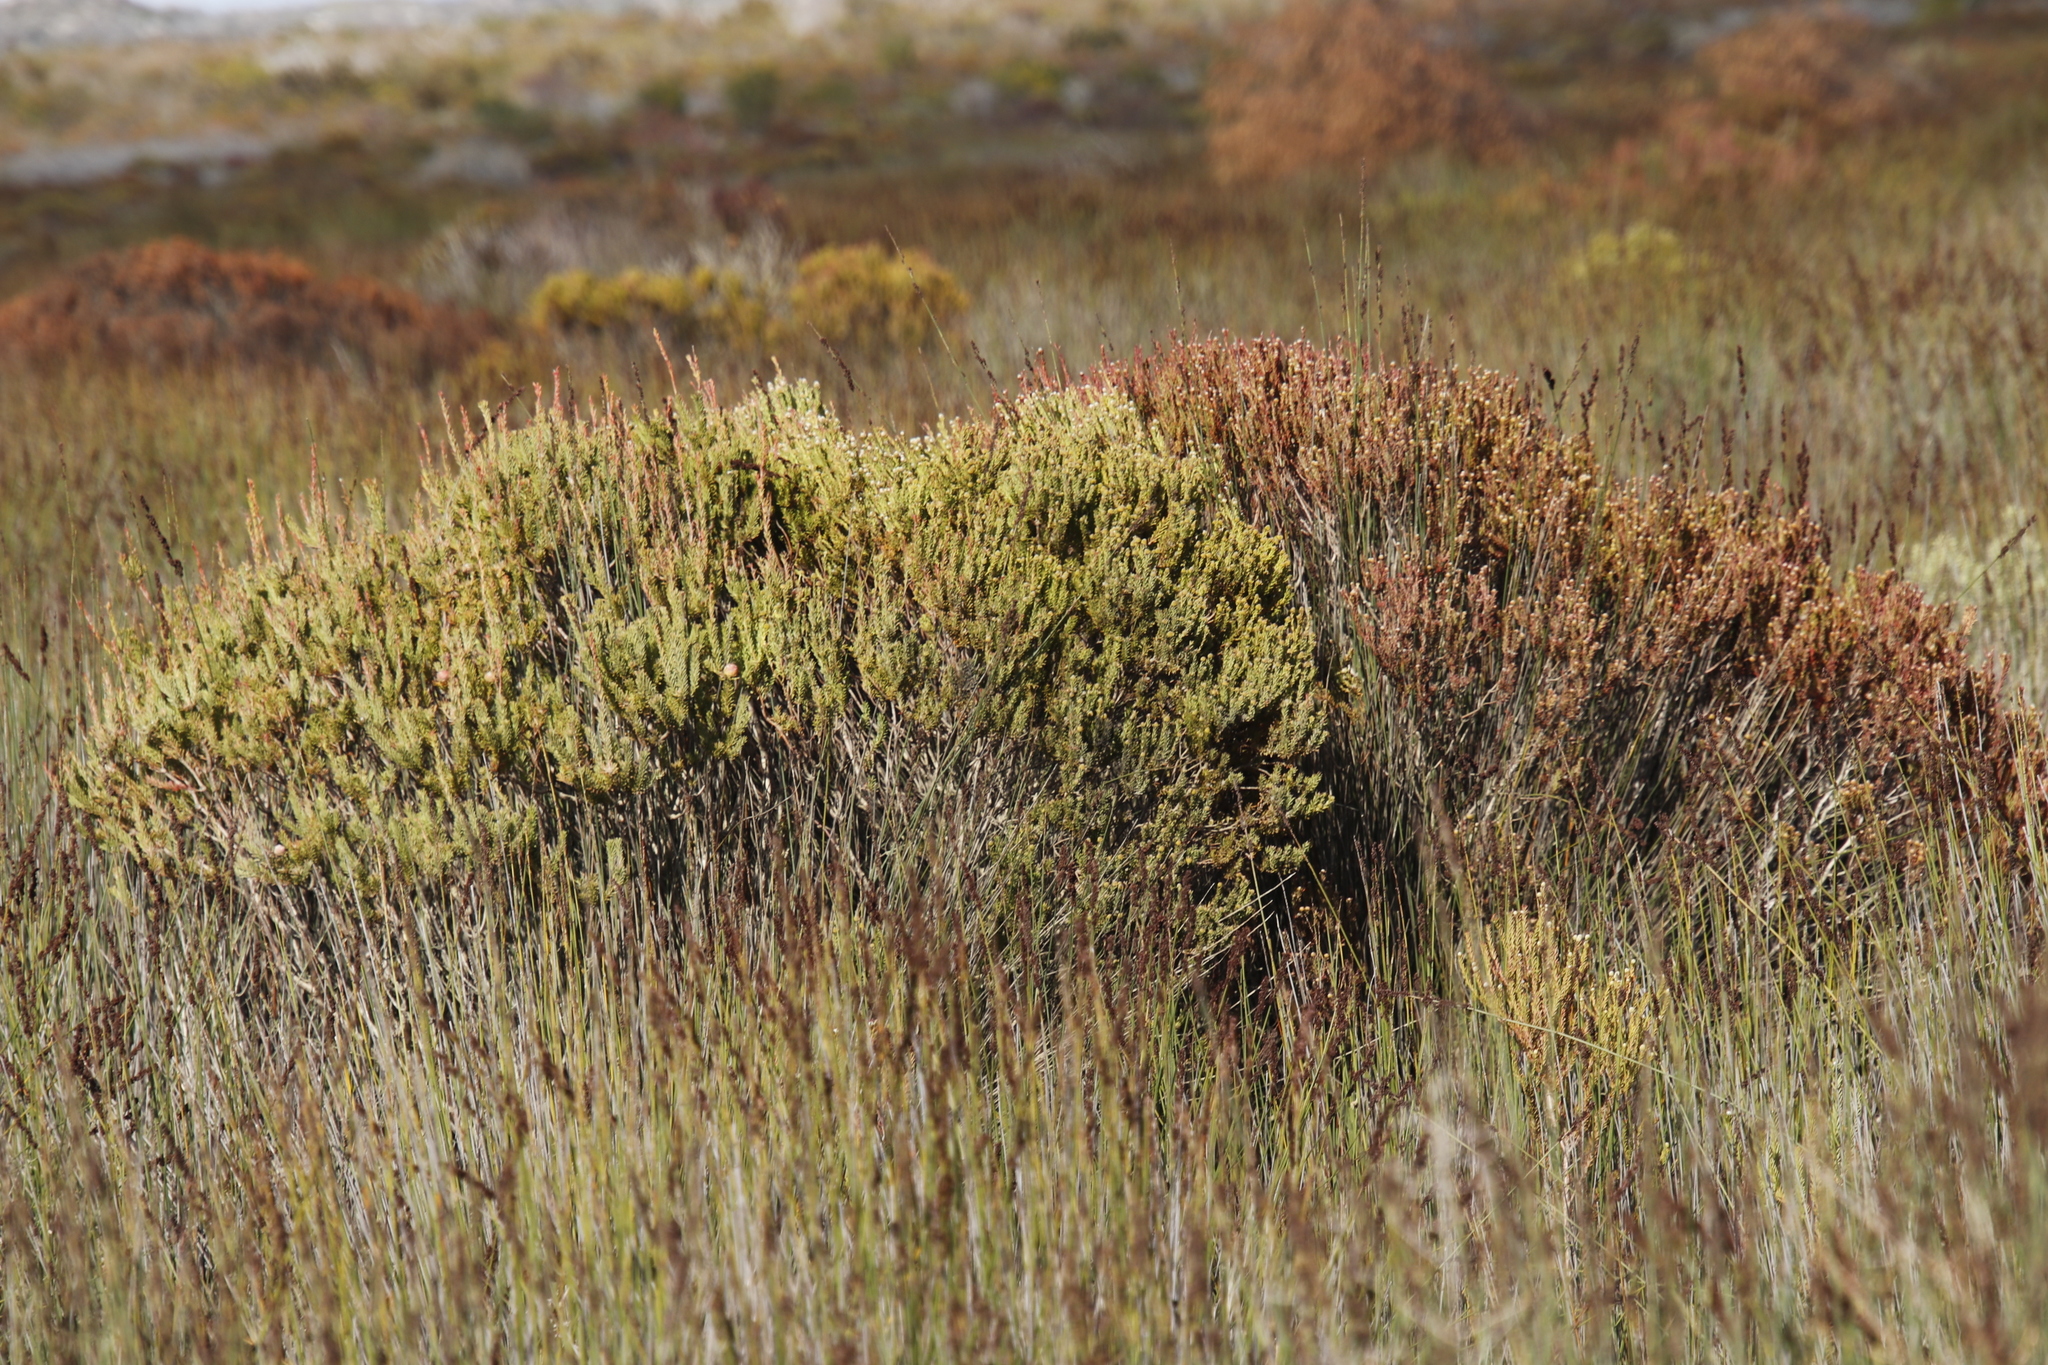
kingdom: Plantae
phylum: Tracheophyta
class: Magnoliopsida
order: Proteales
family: Proteaceae
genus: Leucadendron
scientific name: Leucadendron linifolium
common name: Line-leaf conebush
